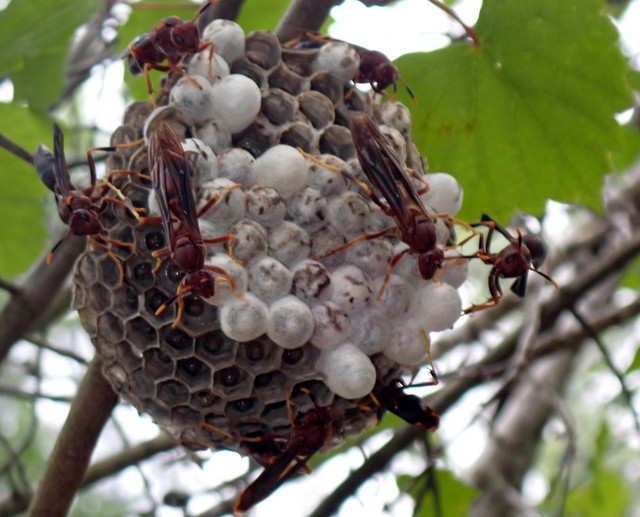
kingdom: Animalia
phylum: Arthropoda
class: Insecta
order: Hymenoptera
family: Eumenidae
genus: Polistes
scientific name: Polistes annularis
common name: Ringed paper wasp
